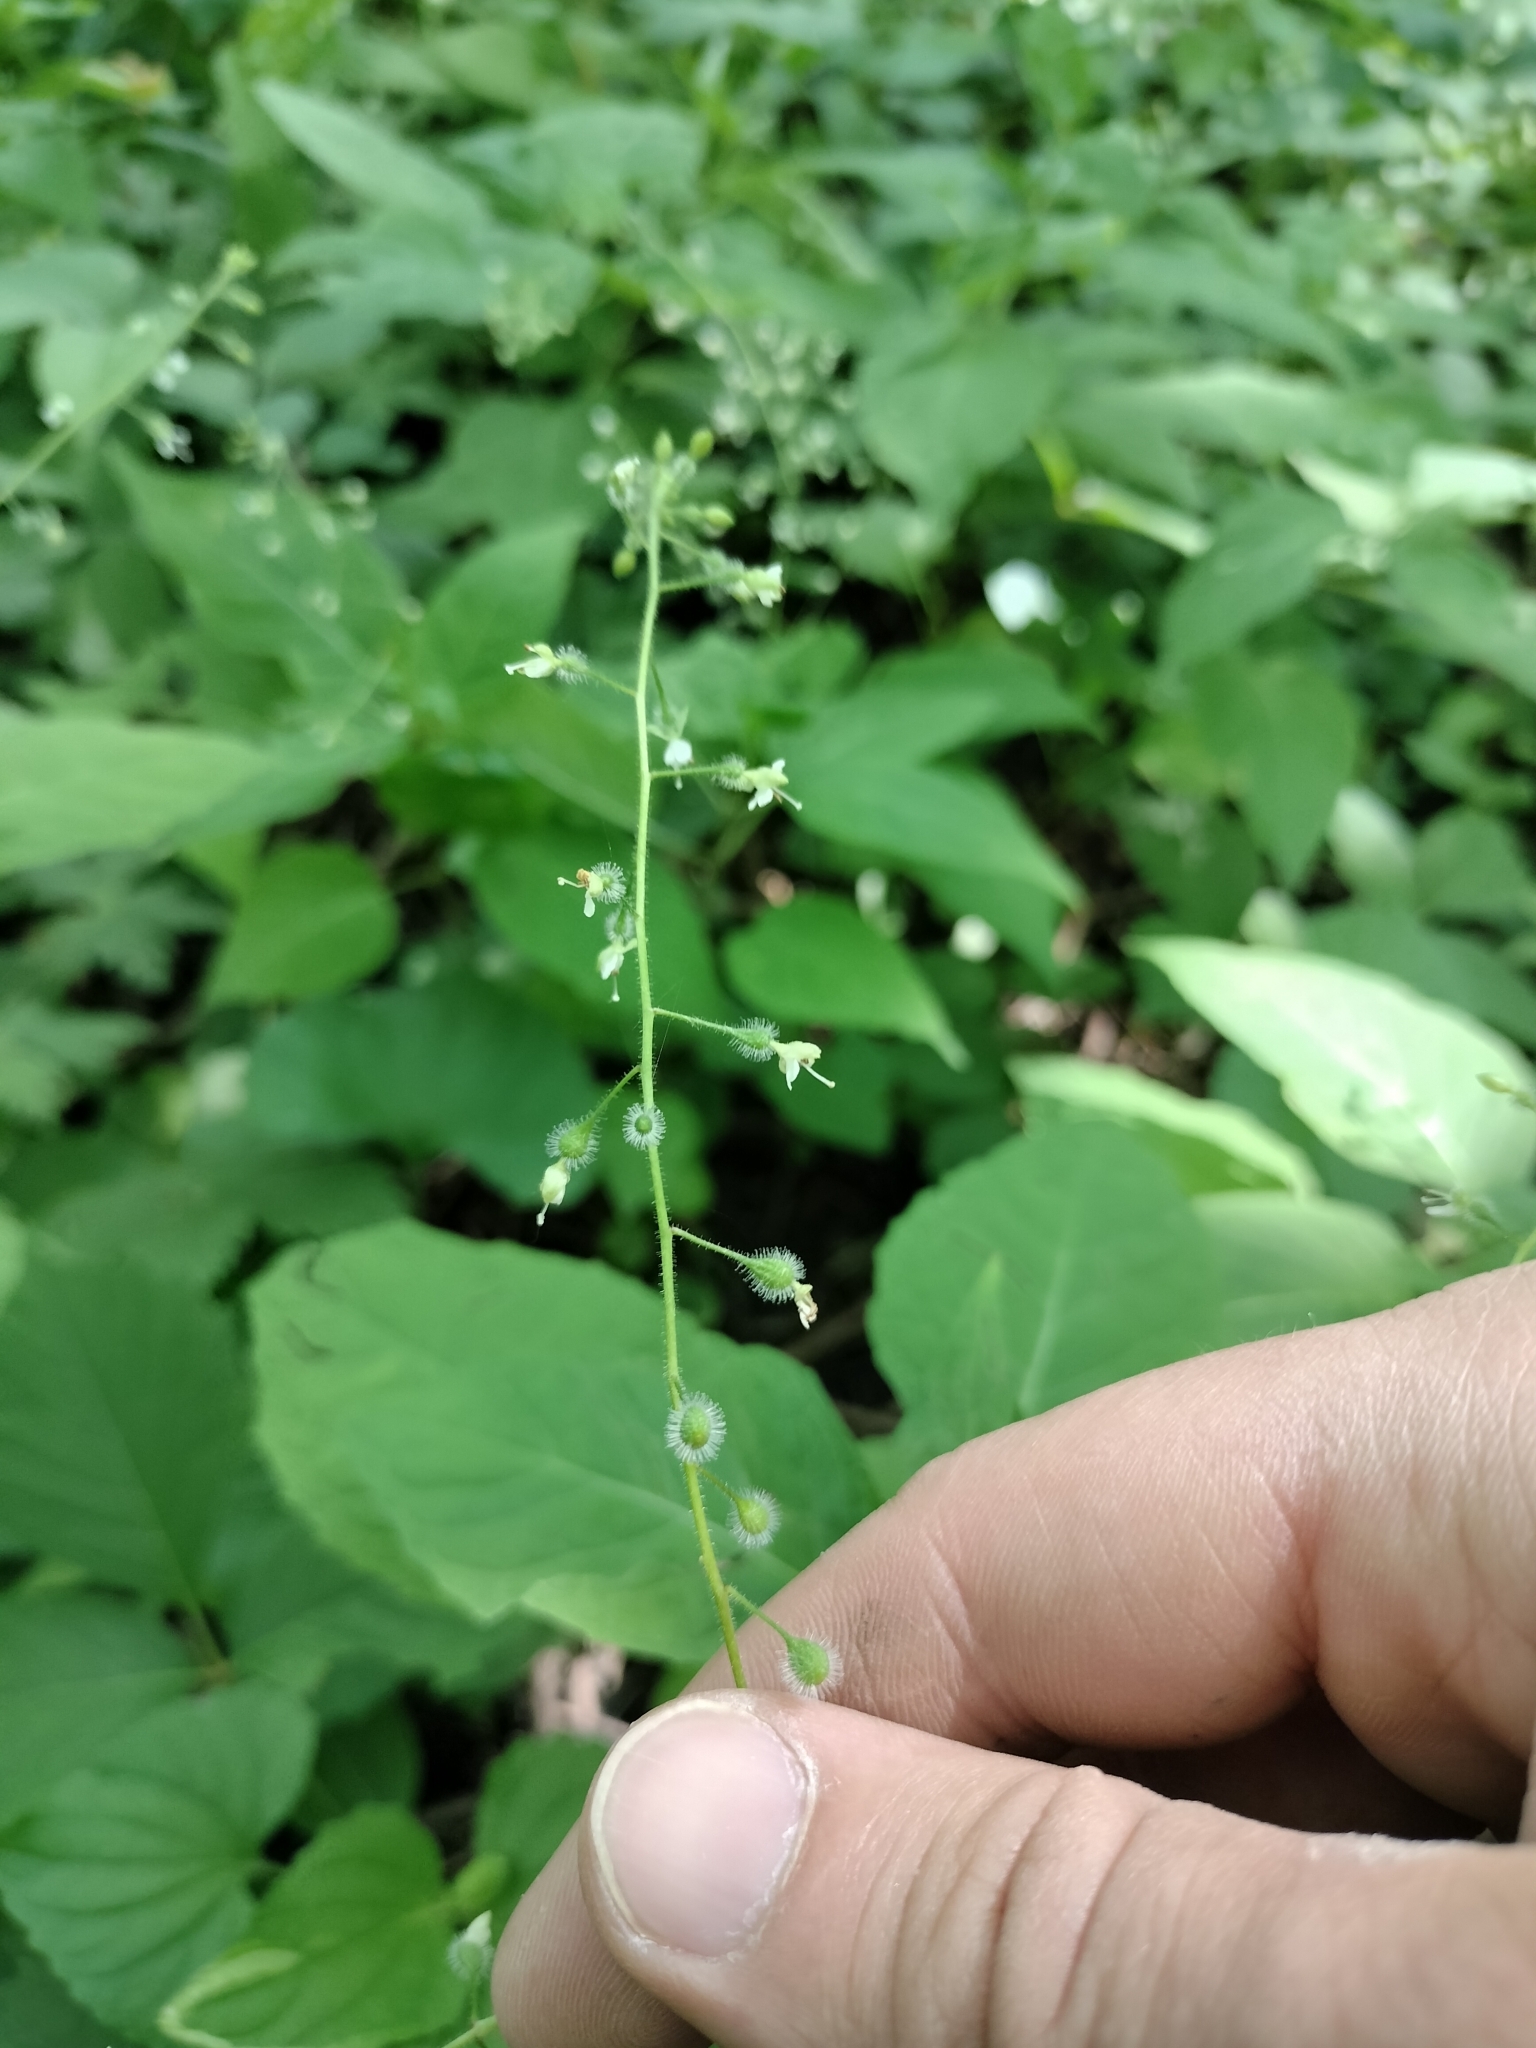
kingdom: Plantae
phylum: Tracheophyta
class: Magnoliopsida
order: Myrtales
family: Onagraceae
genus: Circaea
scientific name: Circaea canadensis
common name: Broad-leaved enchanter's nightshade
